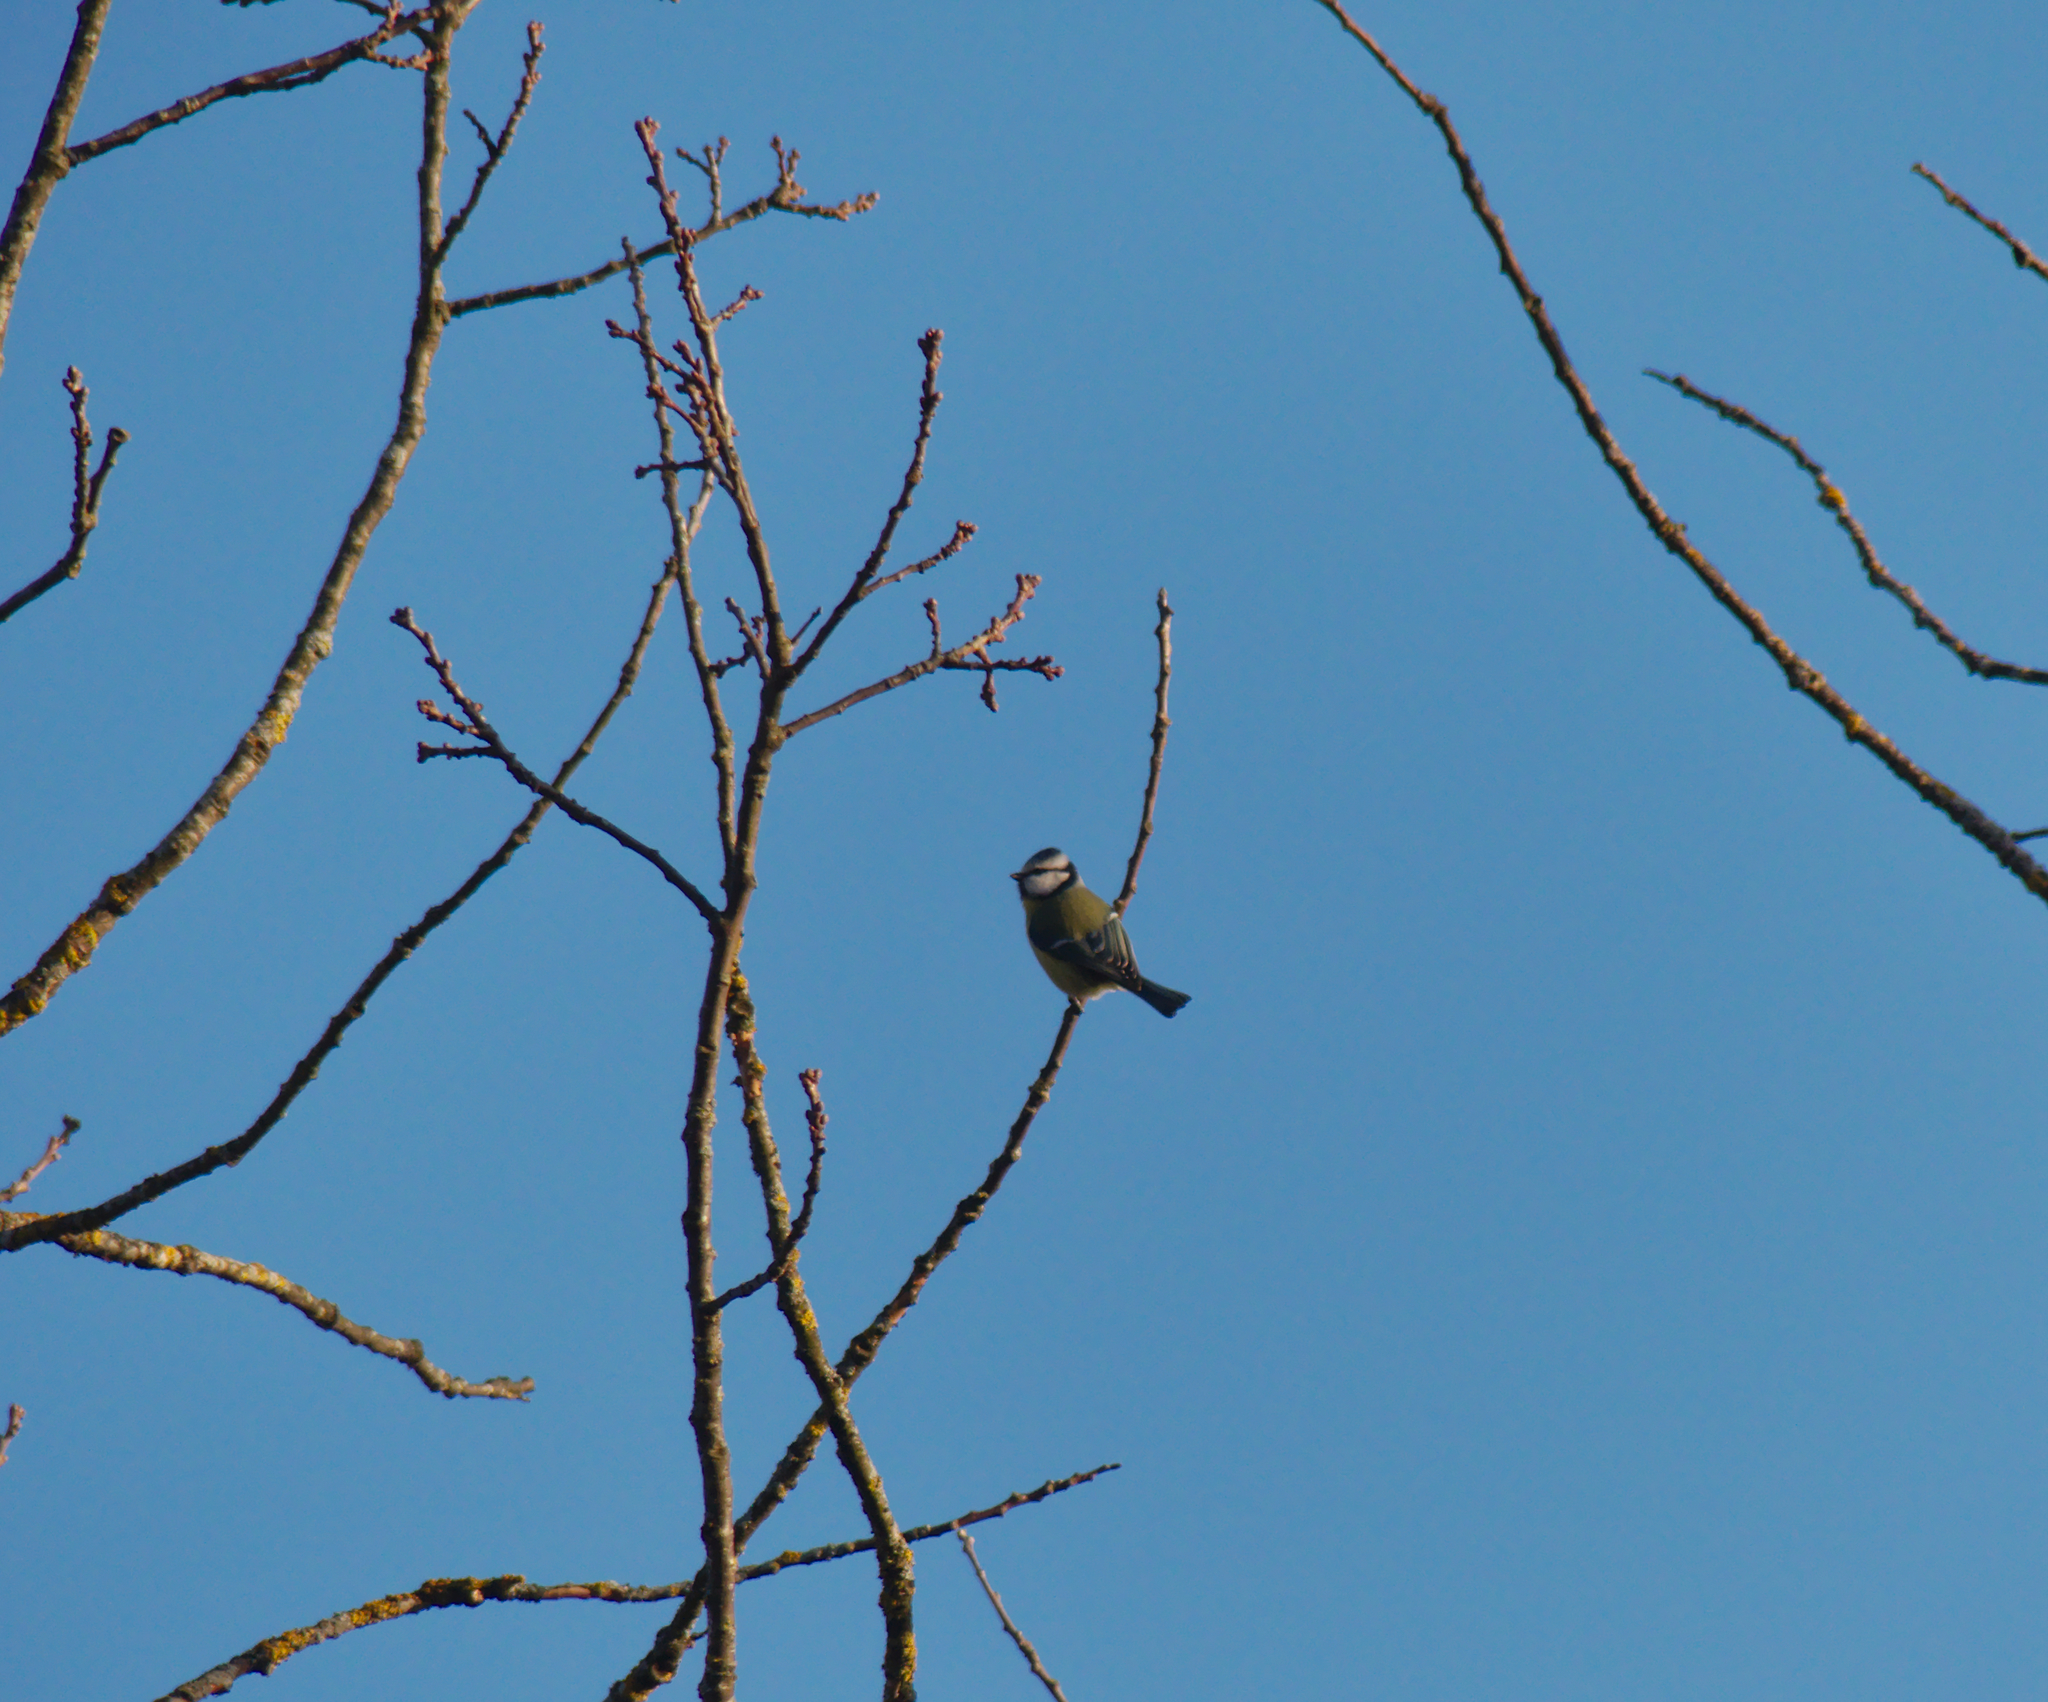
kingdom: Animalia
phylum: Chordata
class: Aves
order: Passeriformes
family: Paridae
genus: Cyanistes
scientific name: Cyanistes caeruleus
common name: Eurasian blue tit
